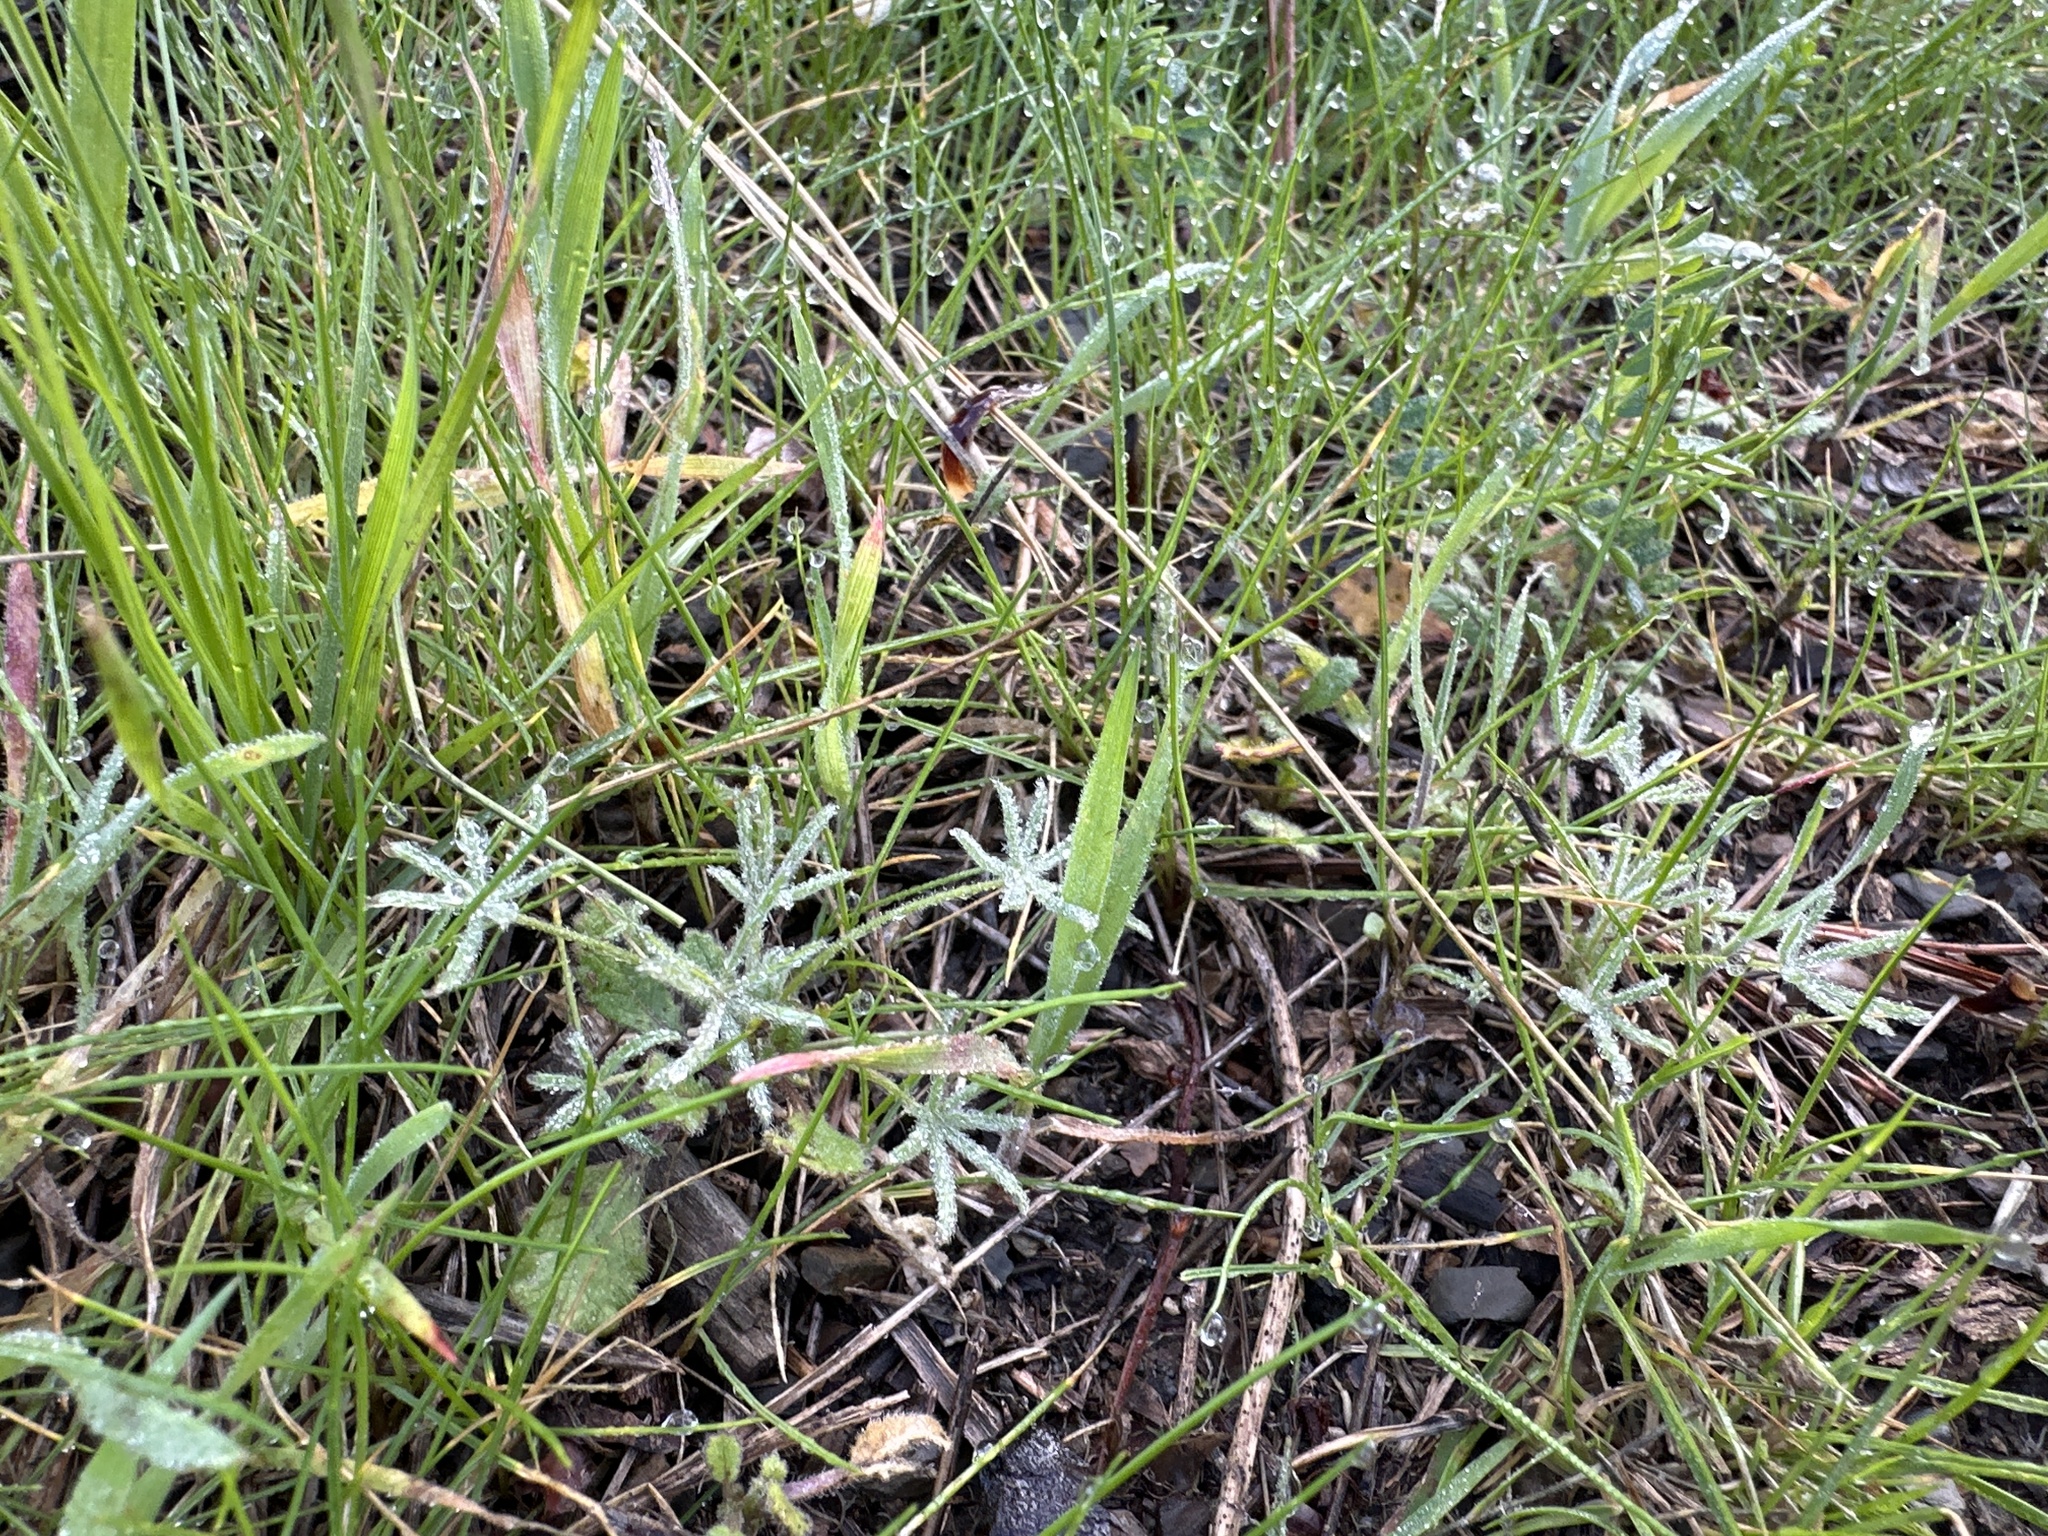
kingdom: Plantae
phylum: Tracheophyta
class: Magnoliopsida
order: Fabales
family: Fabaceae
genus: Lupinus
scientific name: Lupinus bicolor
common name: Miniature lupine
